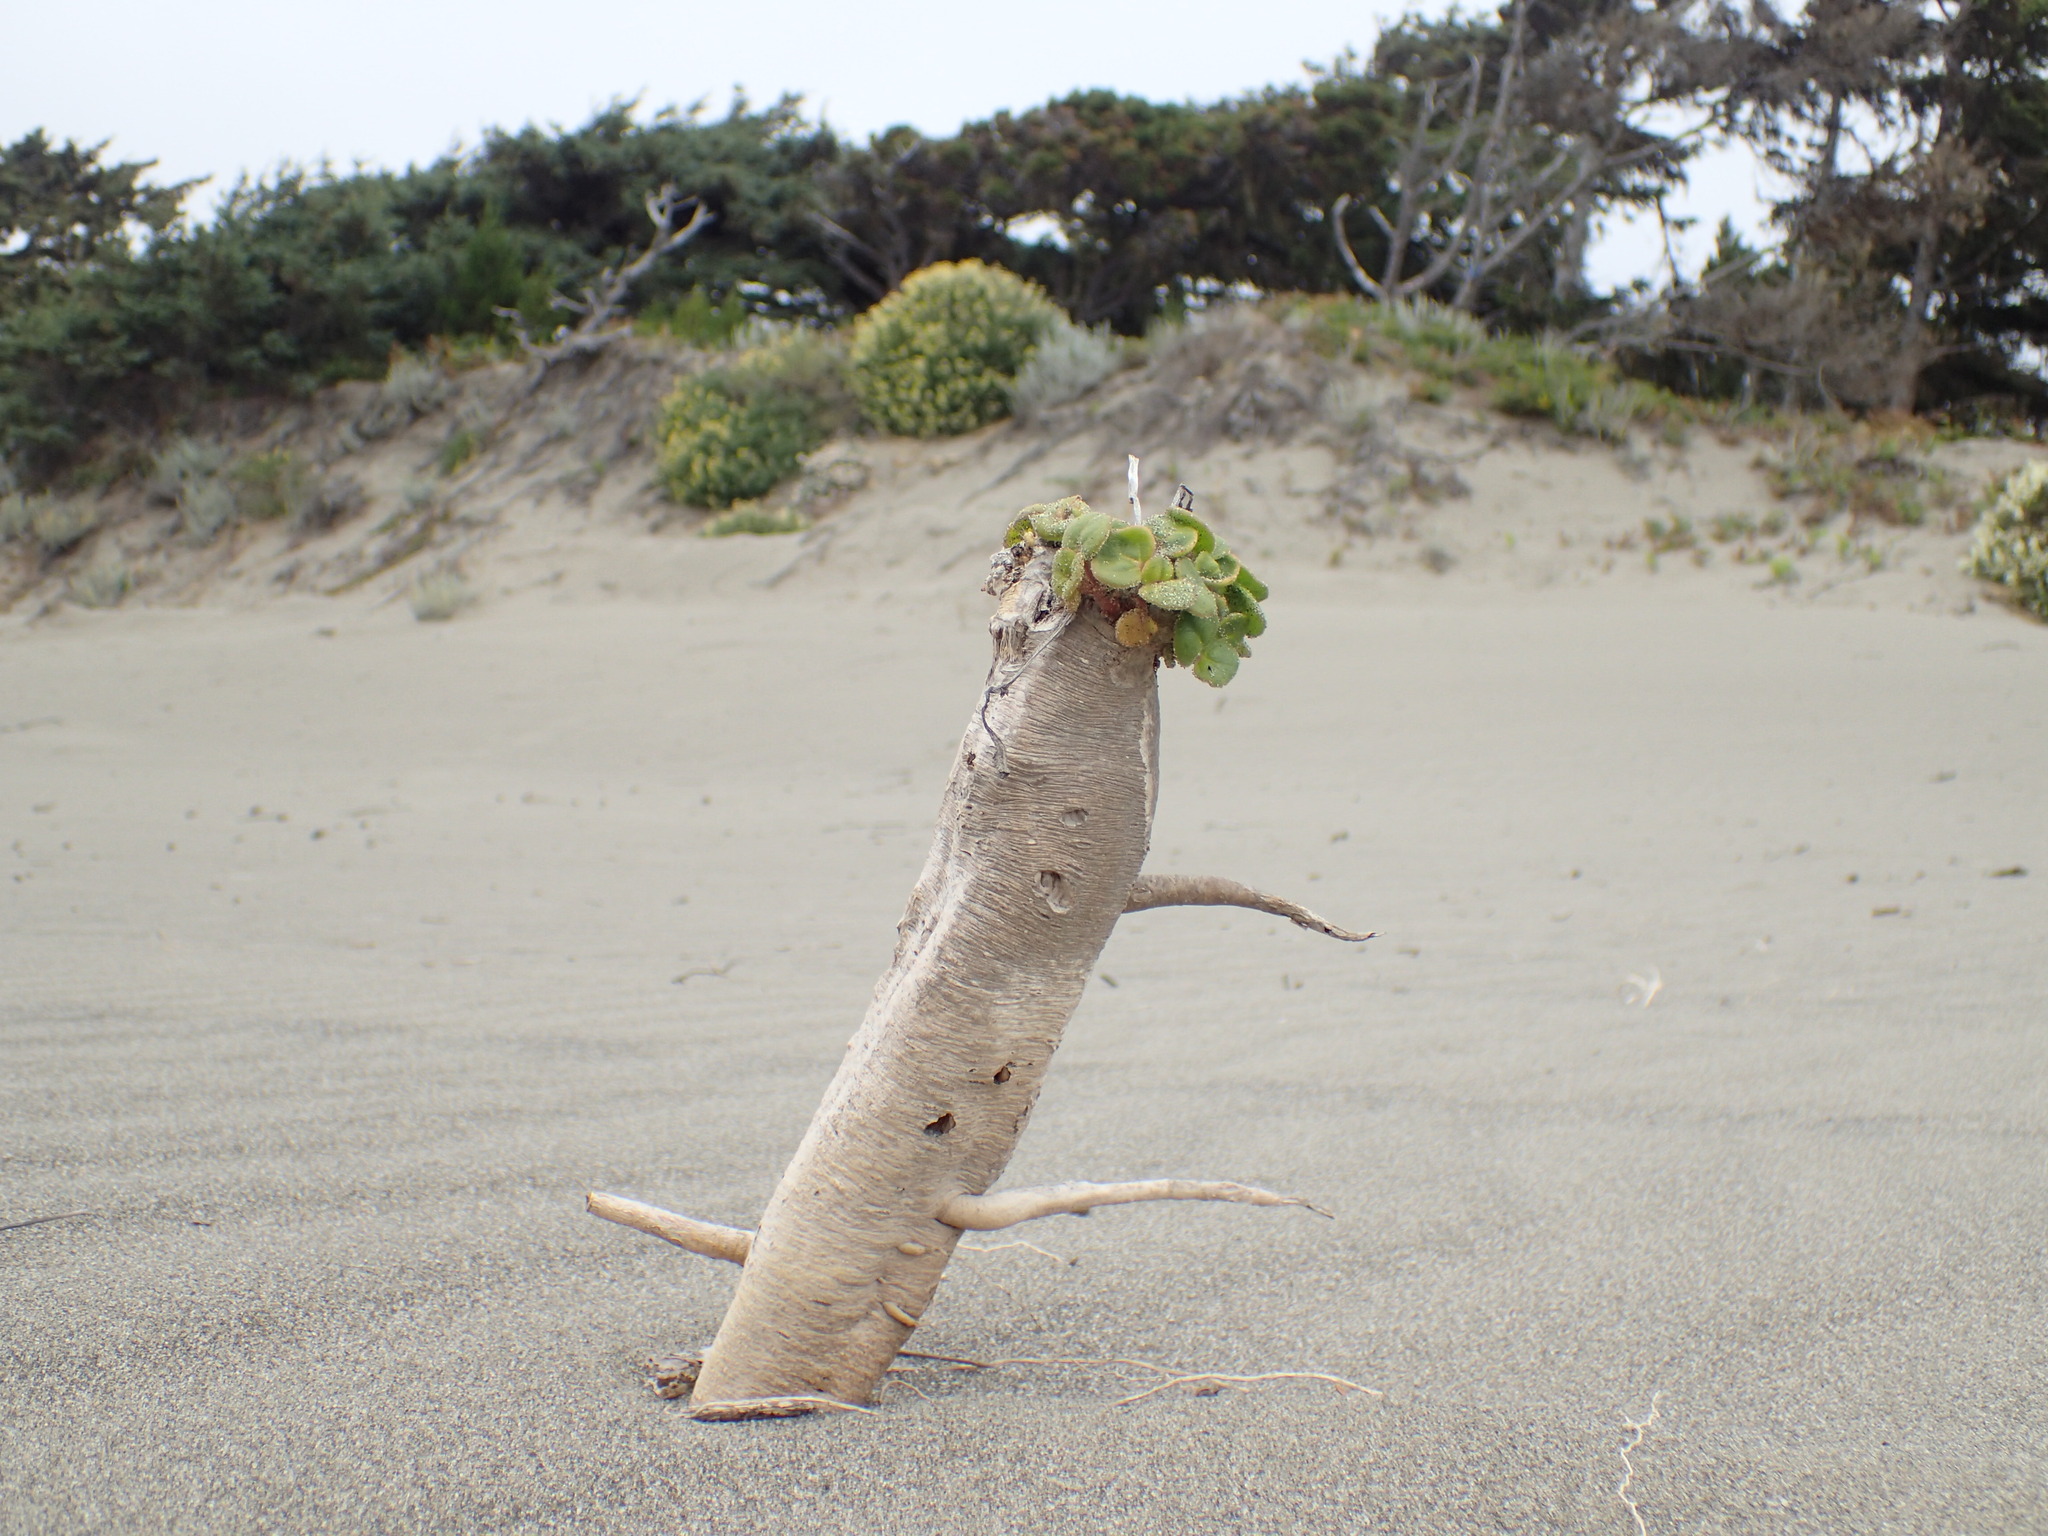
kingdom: Plantae
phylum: Tracheophyta
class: Magnoliopsida
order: Caryophyllales
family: Nyctaginaceae
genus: Abronia
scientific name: Abronia latifolia
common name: Yellow sand-verbena
